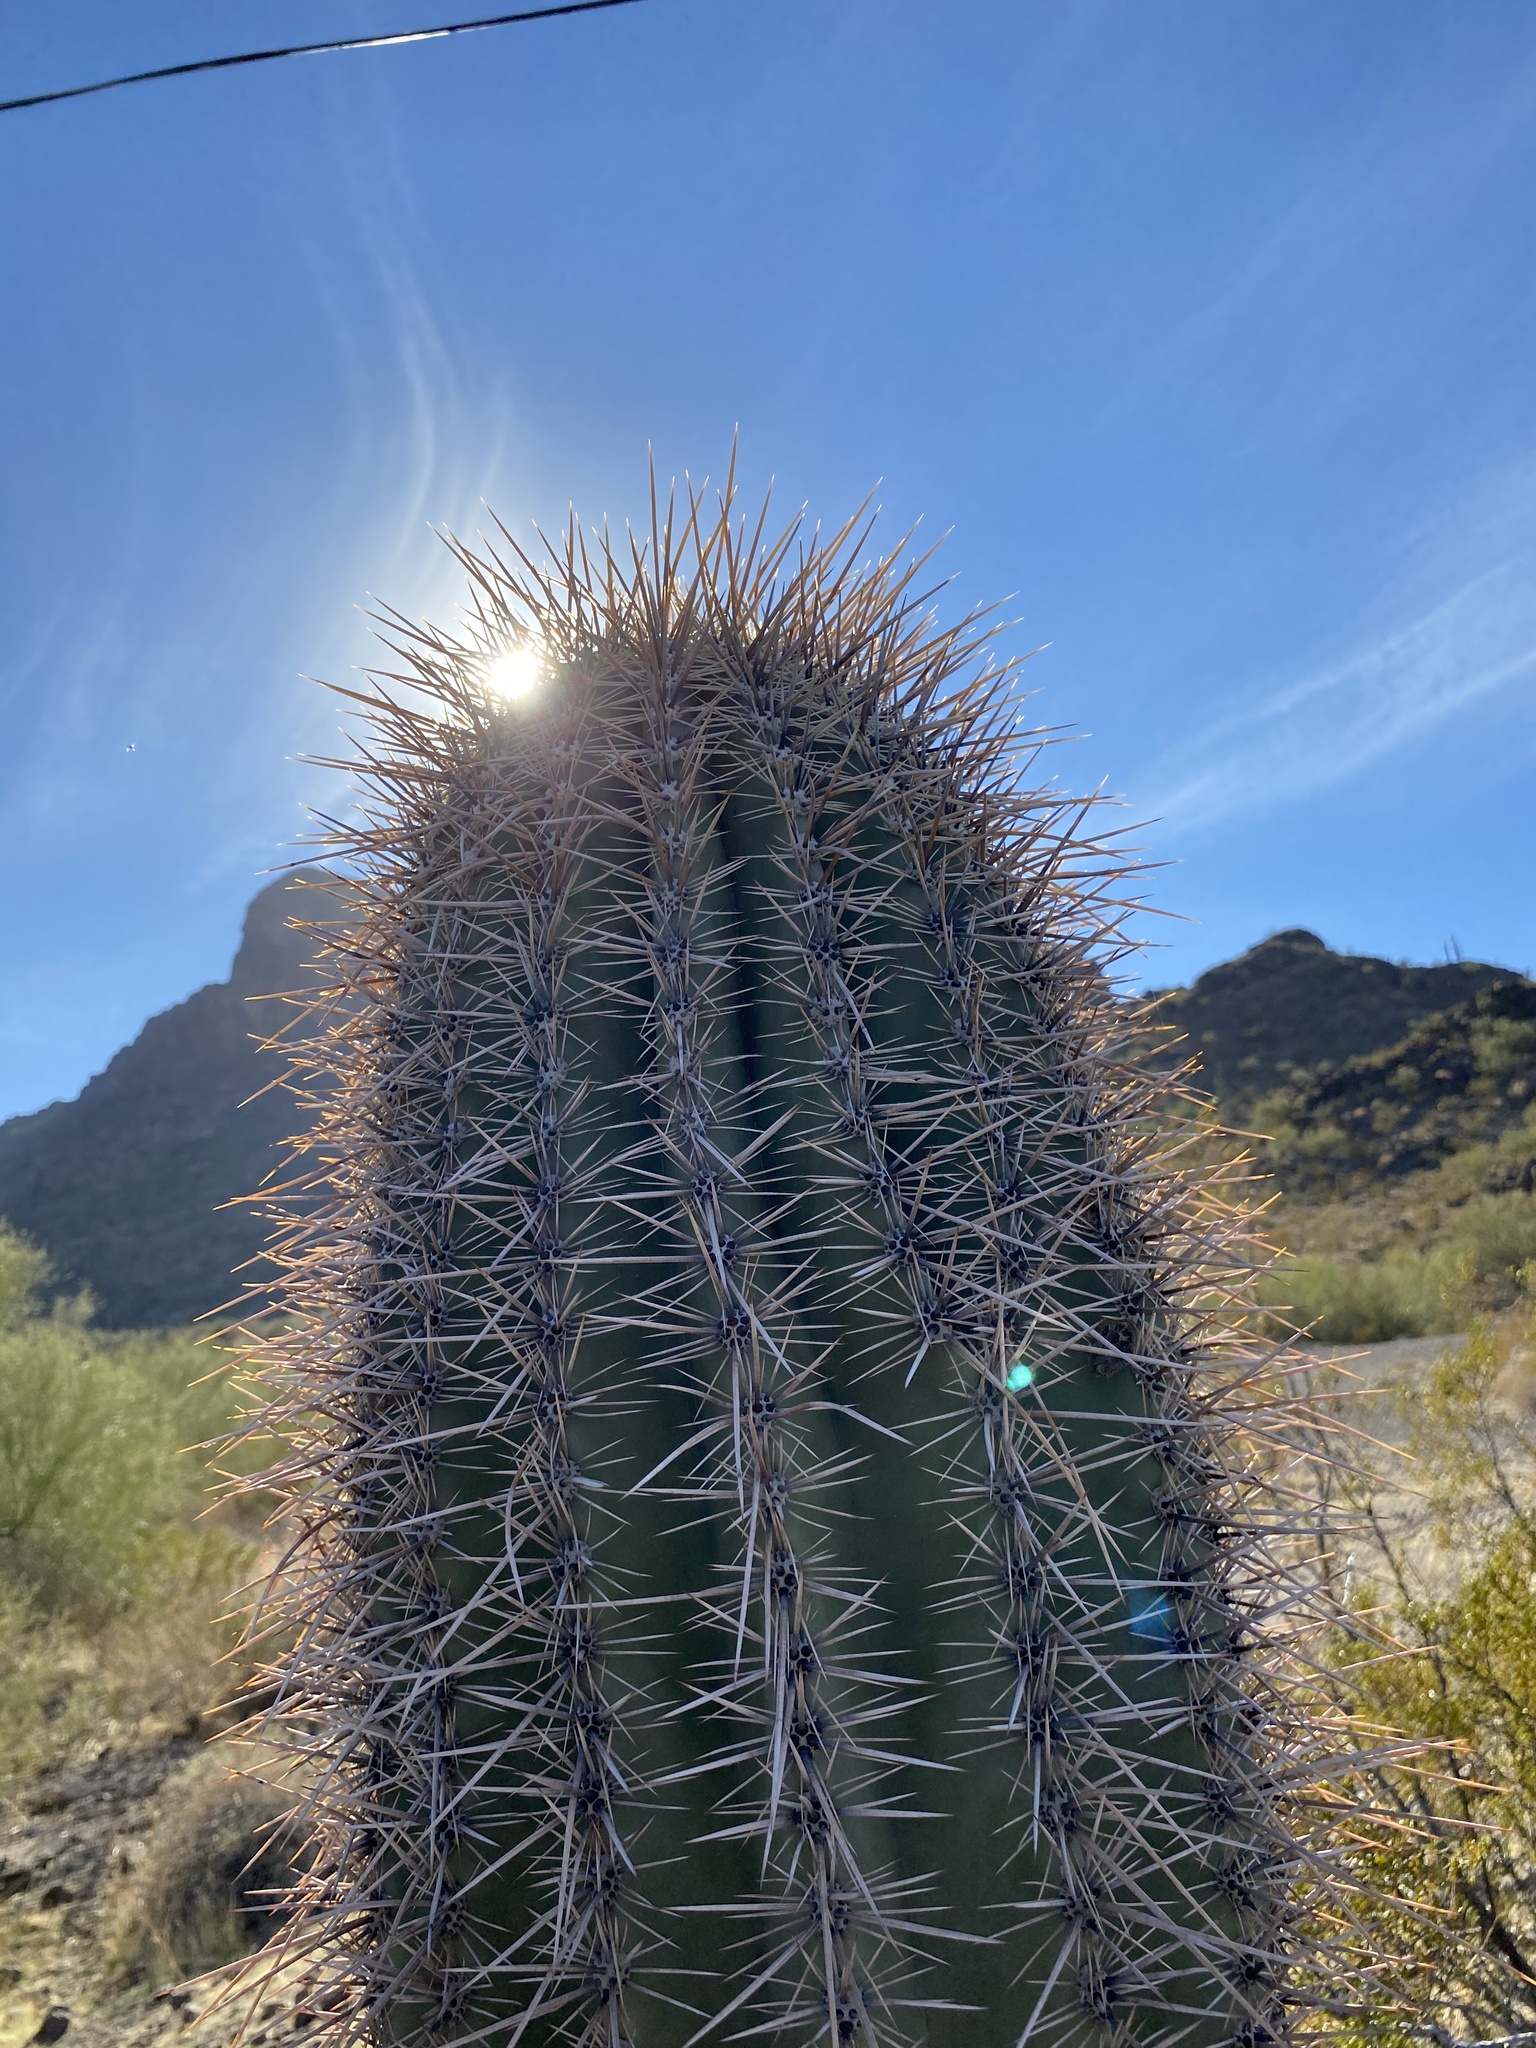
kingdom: Plantae
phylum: Tracheophyta
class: Magnoliopsida
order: Caryophyllales
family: Cactaceae
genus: Carnegiea
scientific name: Carnegiea gigantea
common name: Saguaro
